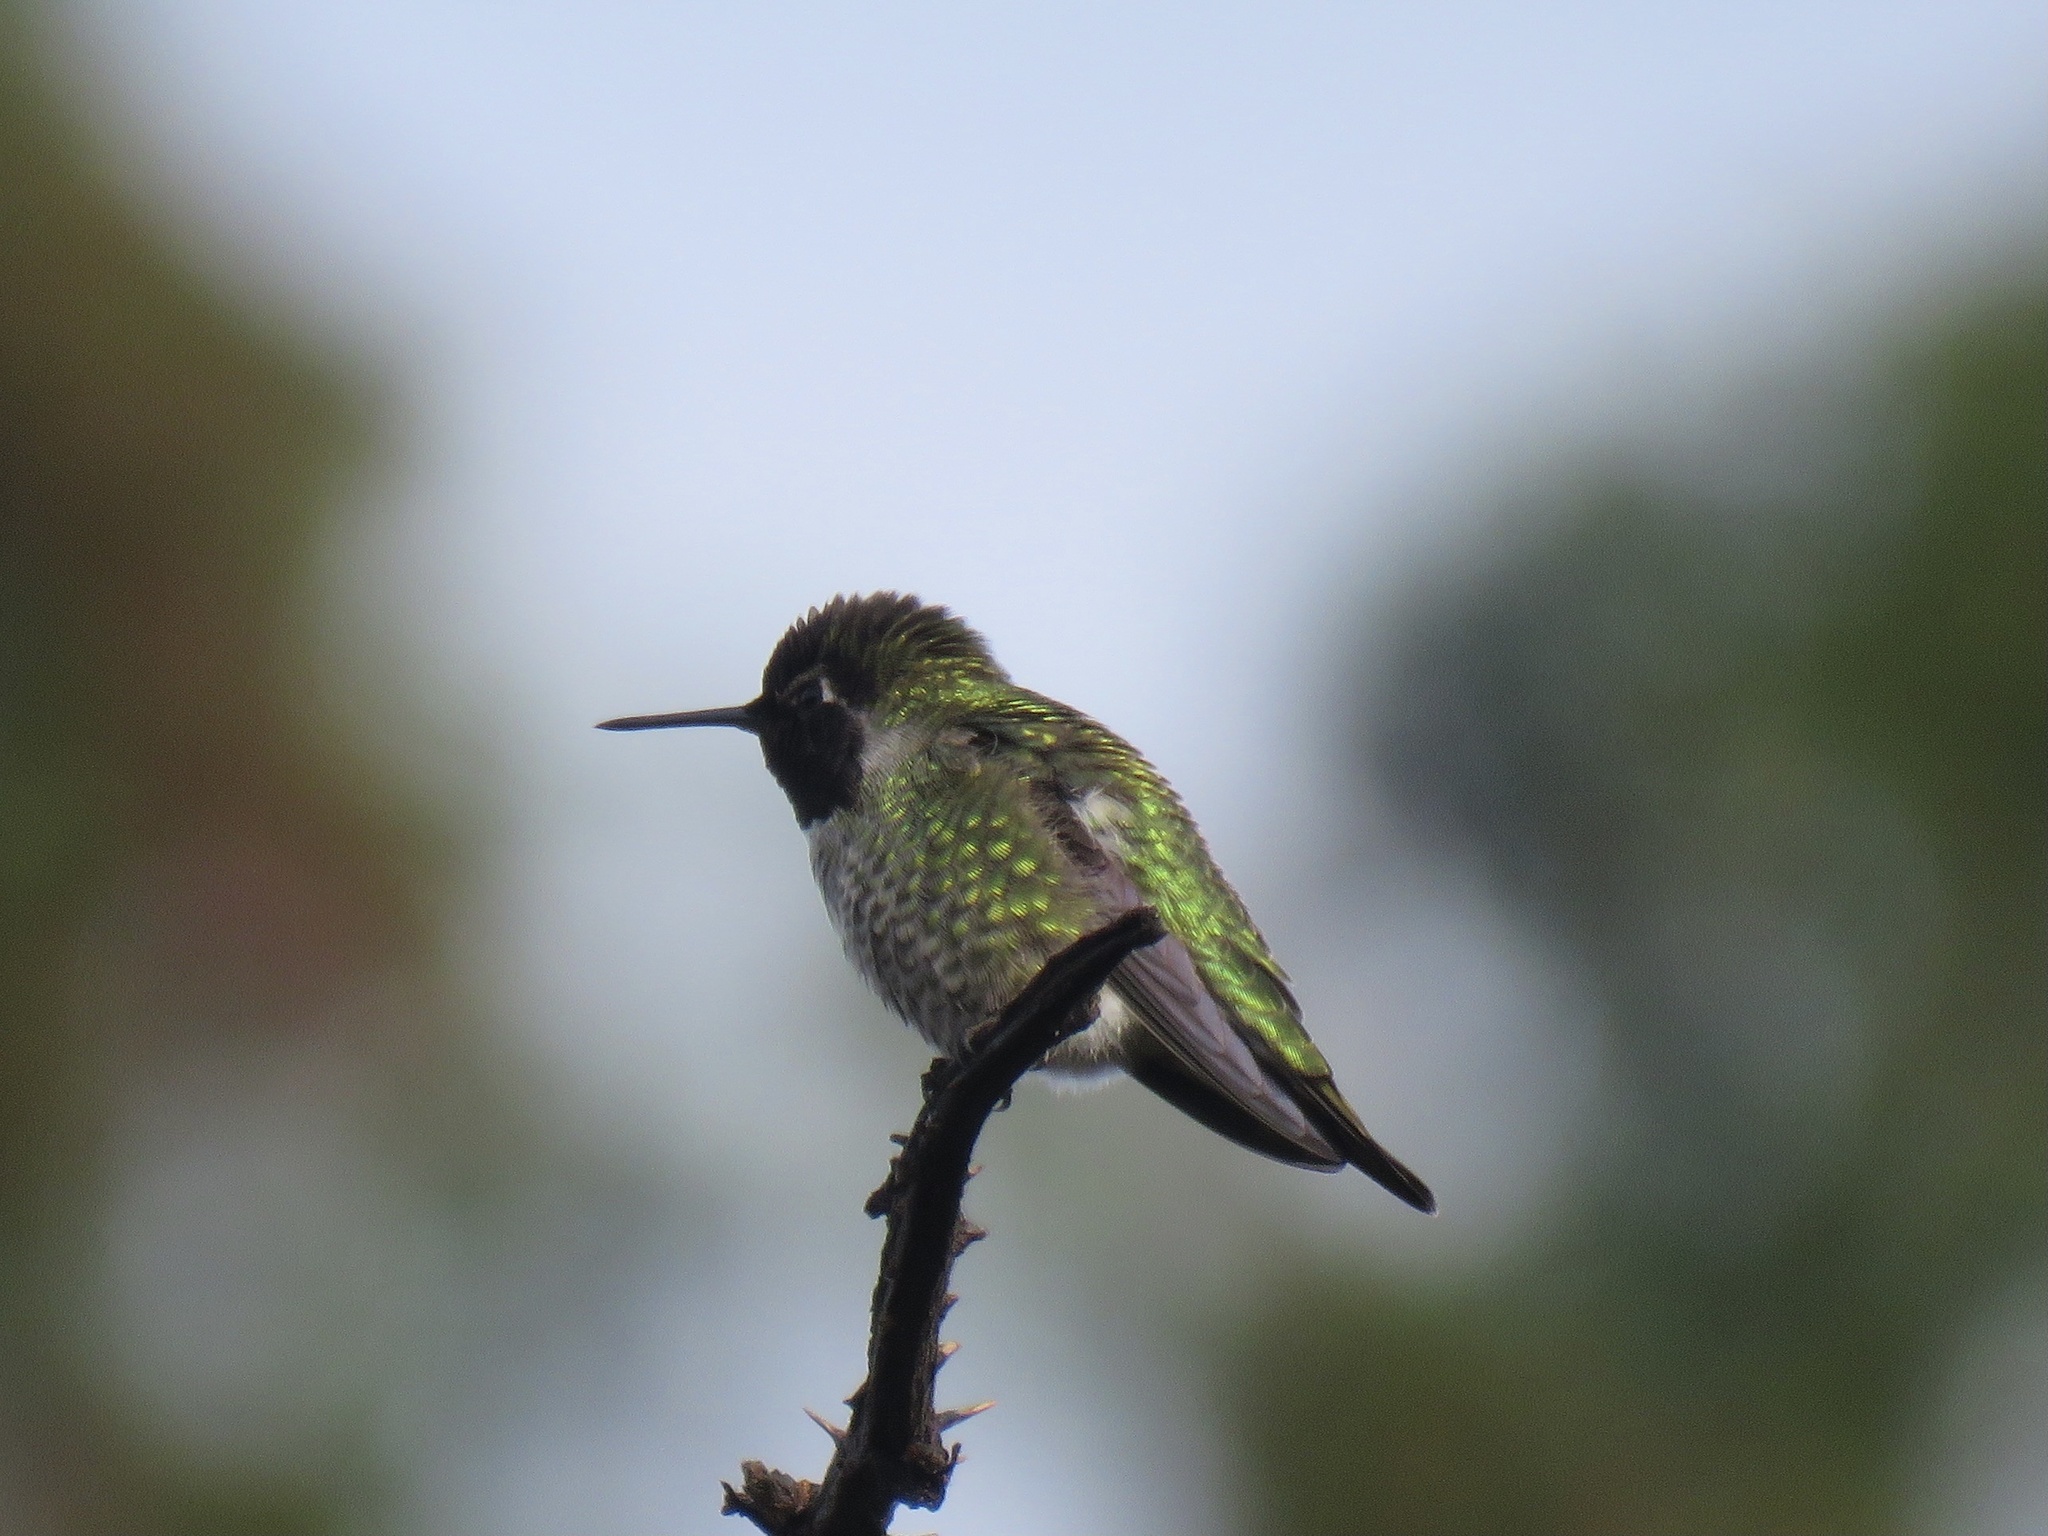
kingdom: Animalia
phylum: Chordata
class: Aves
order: Apodiformes
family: Trochilidae
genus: Calypte
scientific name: Calypte anna
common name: Anna's hummingbird
